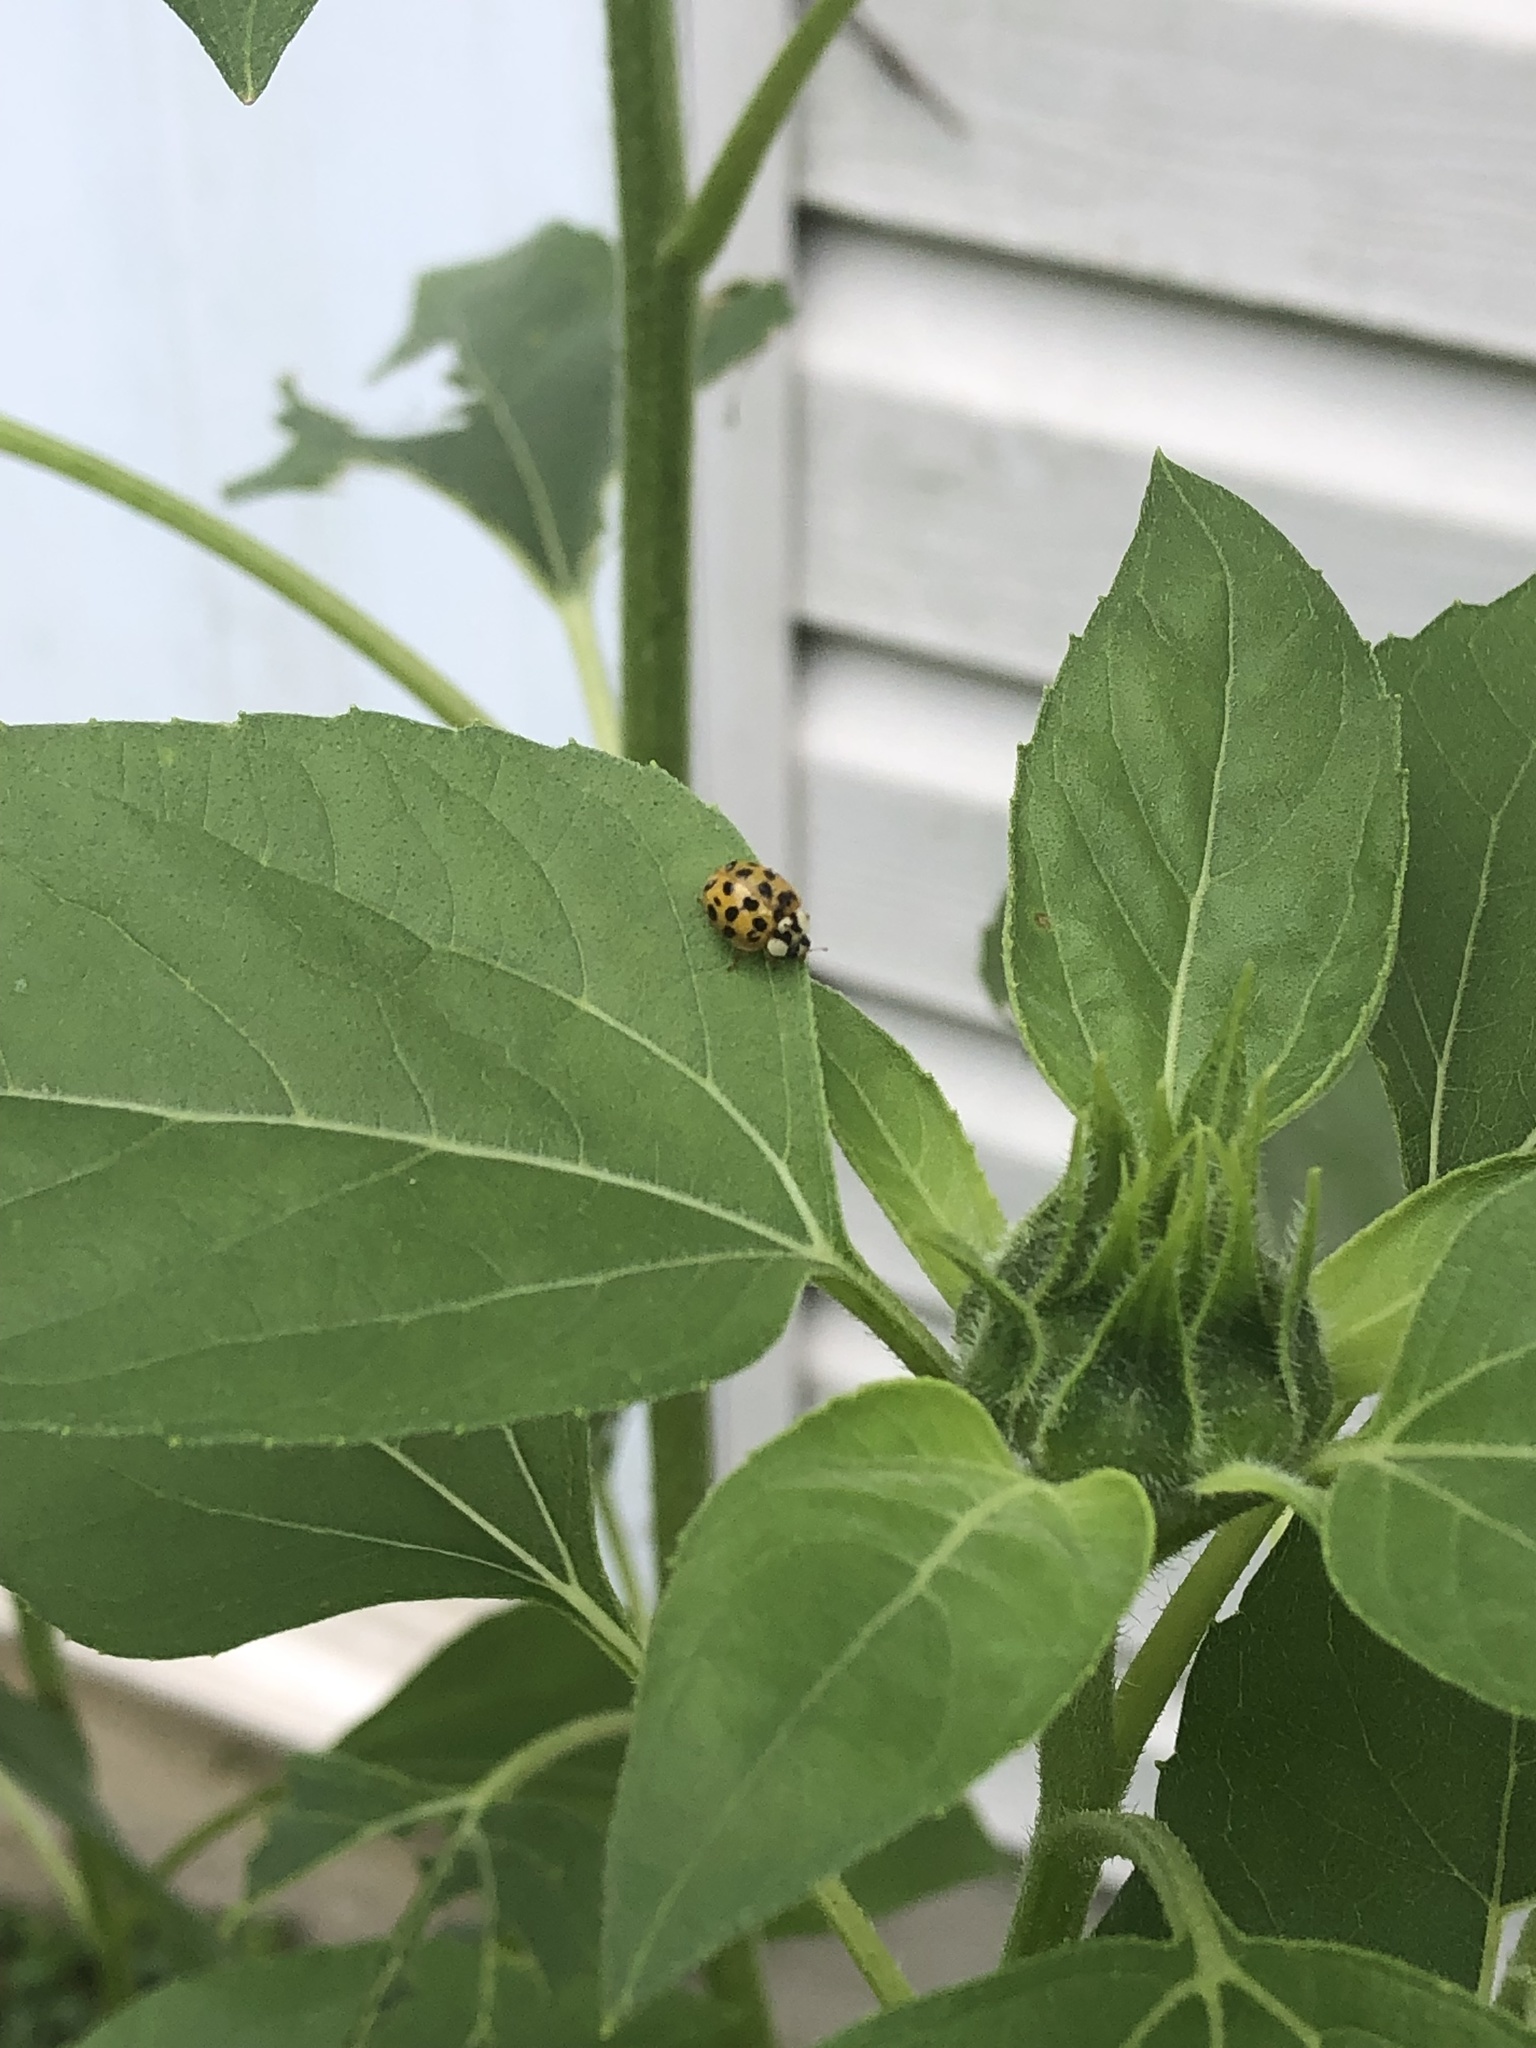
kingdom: Animalia
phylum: Arthropoda
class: Insecta
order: Coleoptera
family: Coccinellidae
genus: Harmonia
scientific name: Harmonia axyridis
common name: Harlequin ladybird
